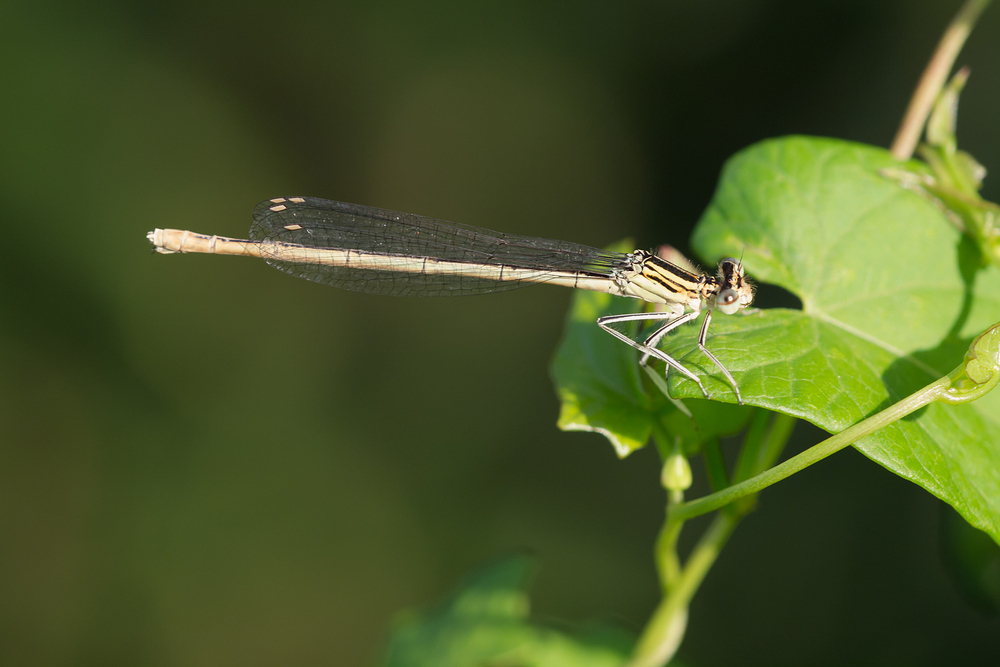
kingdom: Animalia
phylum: Arthropoda
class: Insecta
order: Odonata
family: Platycnemididae
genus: Platycnemis
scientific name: Platycnemis pennipes
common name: White-legged damselfly
